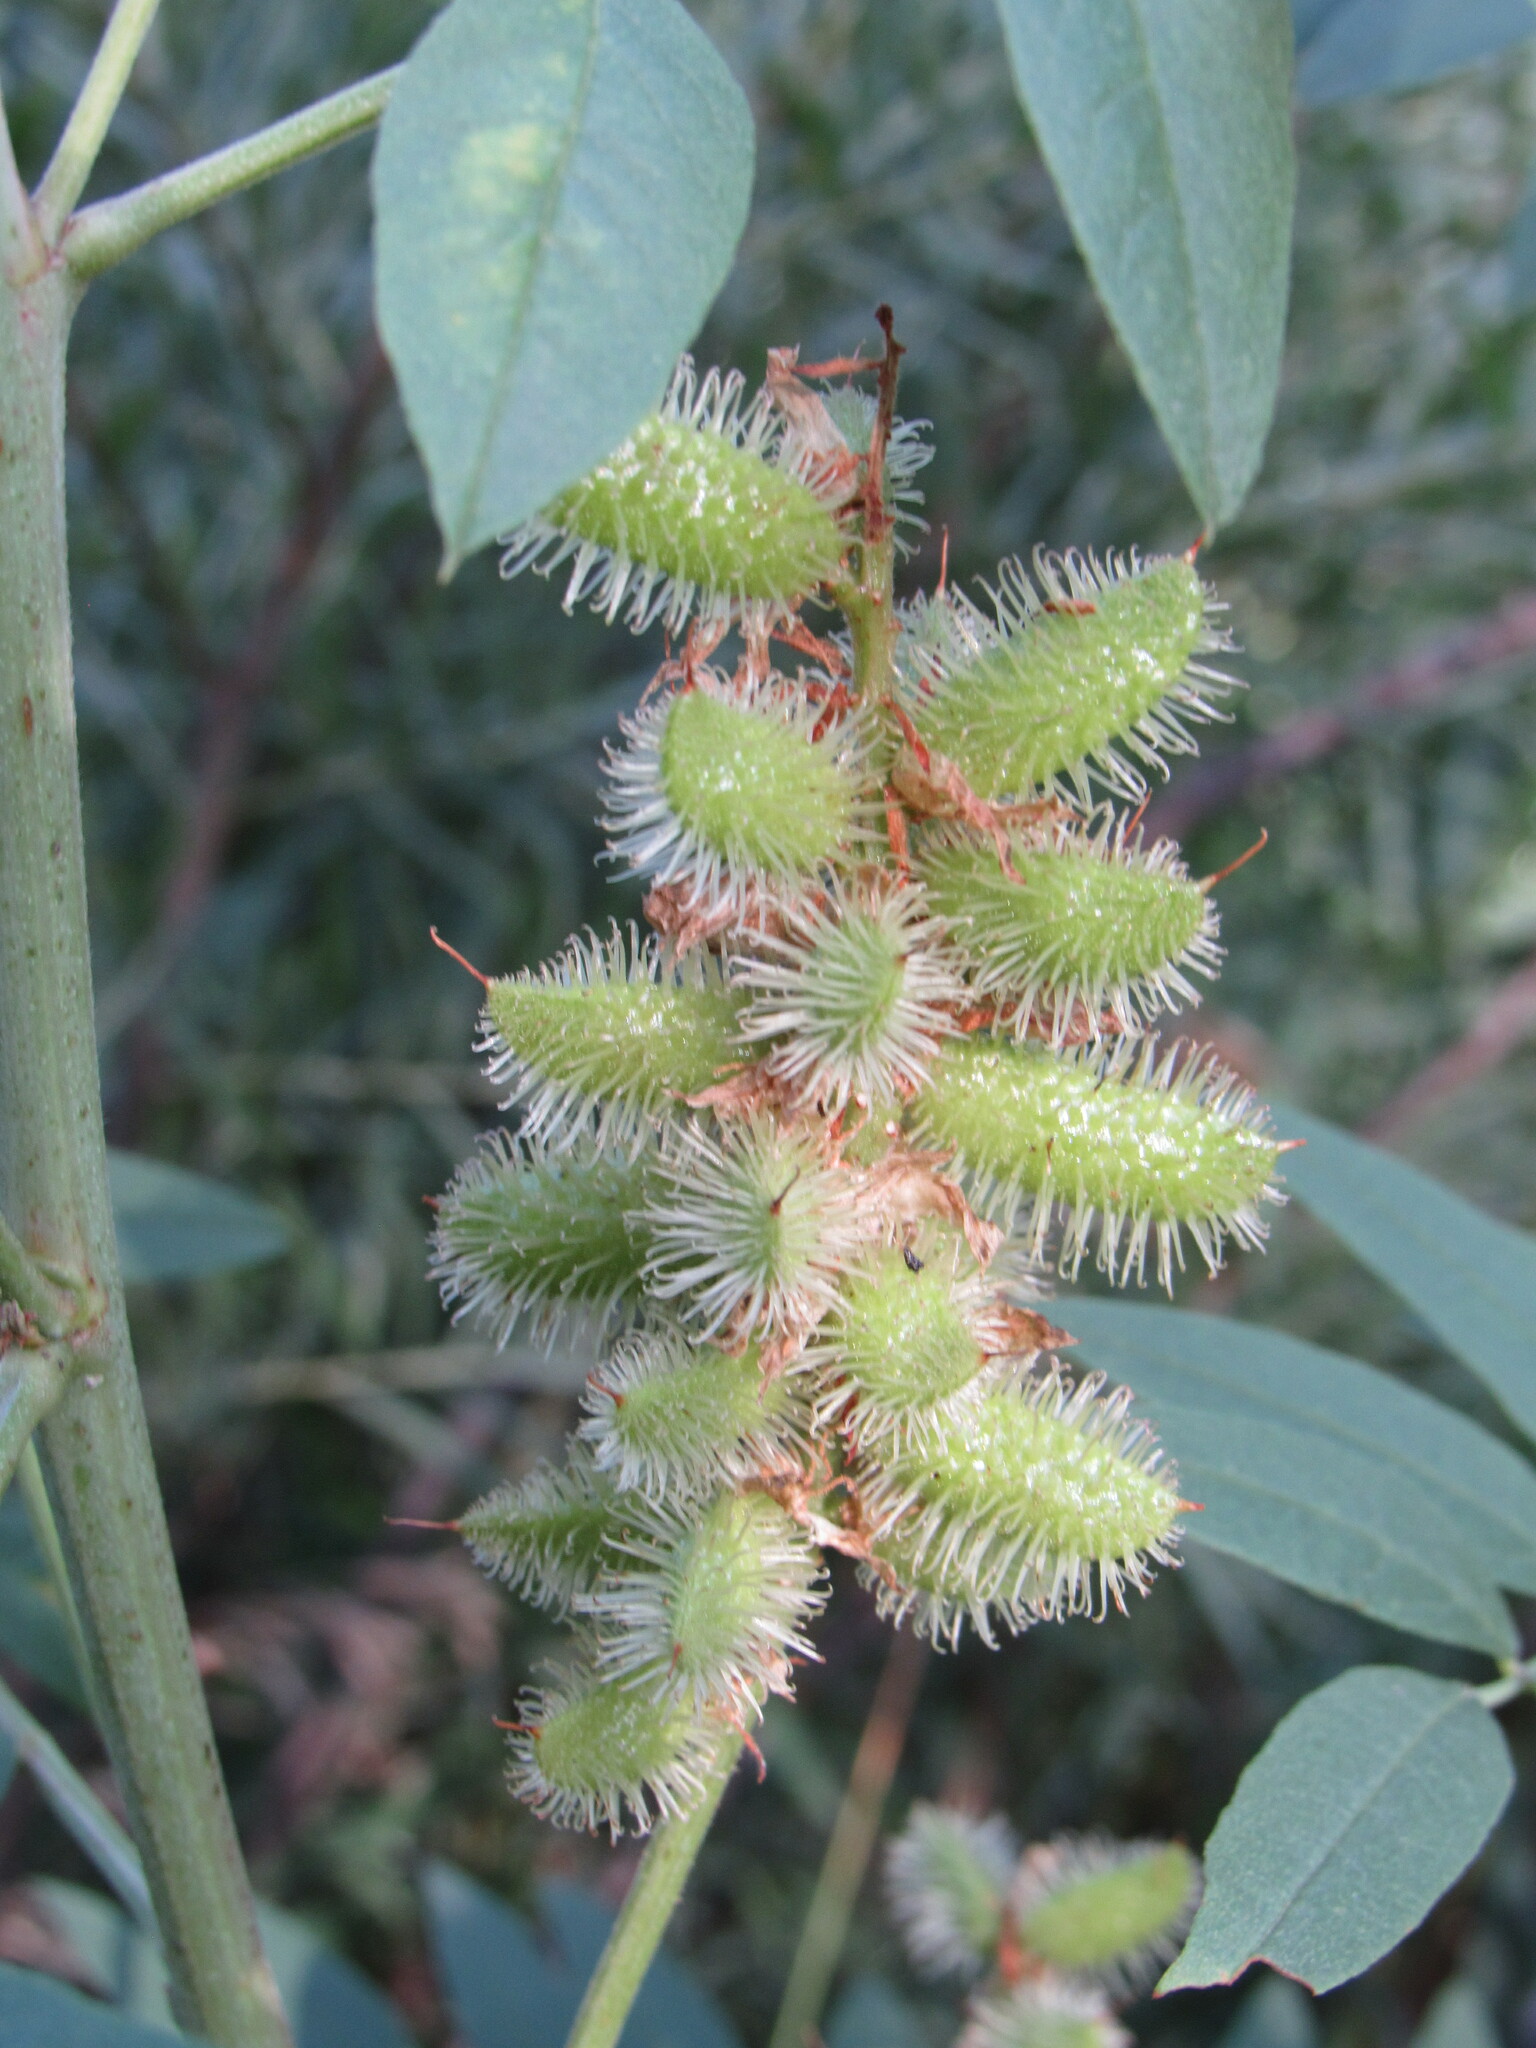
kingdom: Plantae
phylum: Tracheophyta
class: Magnoliopsida
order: Fabales
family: Fabaceae
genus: Glycyrrhiza
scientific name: Glycyrrhiza lepidota
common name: American liquorice
